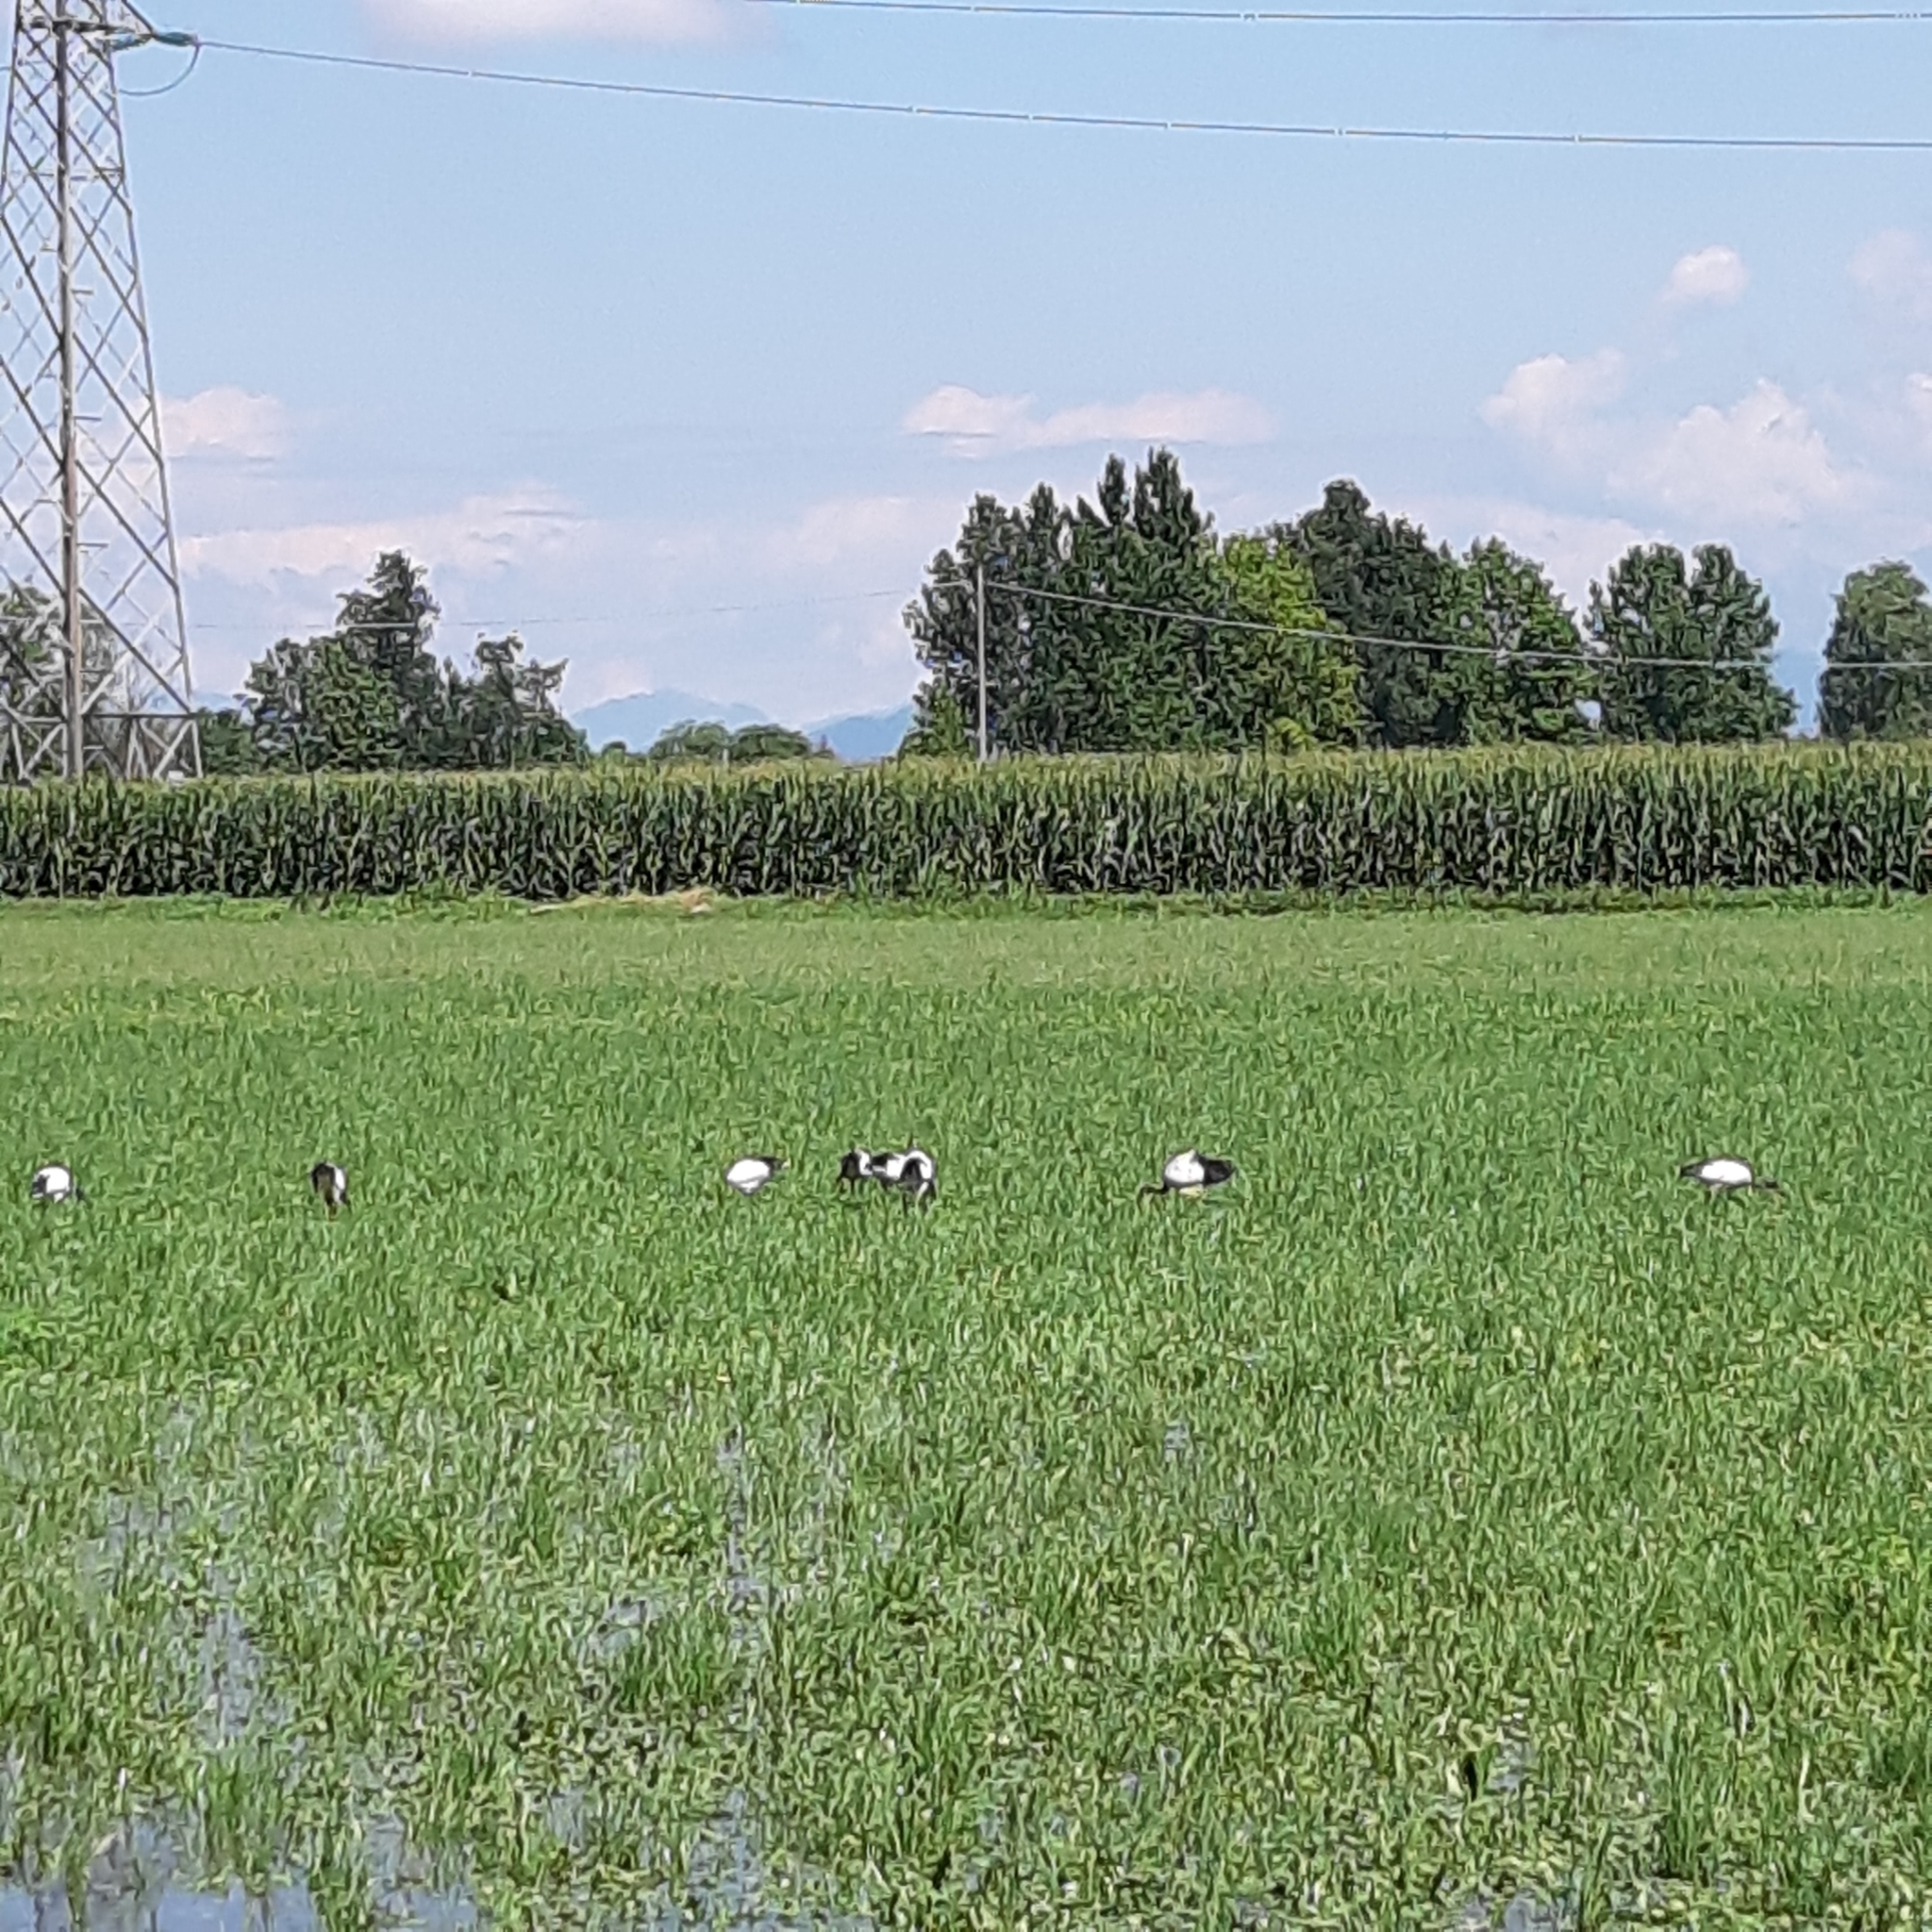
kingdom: Animalia
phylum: Chordata
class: Aves
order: Pelecaniformes
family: Threskiornithidae
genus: Threskiornis
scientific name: Threskiornis aethiopicus
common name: Sacred ibis
